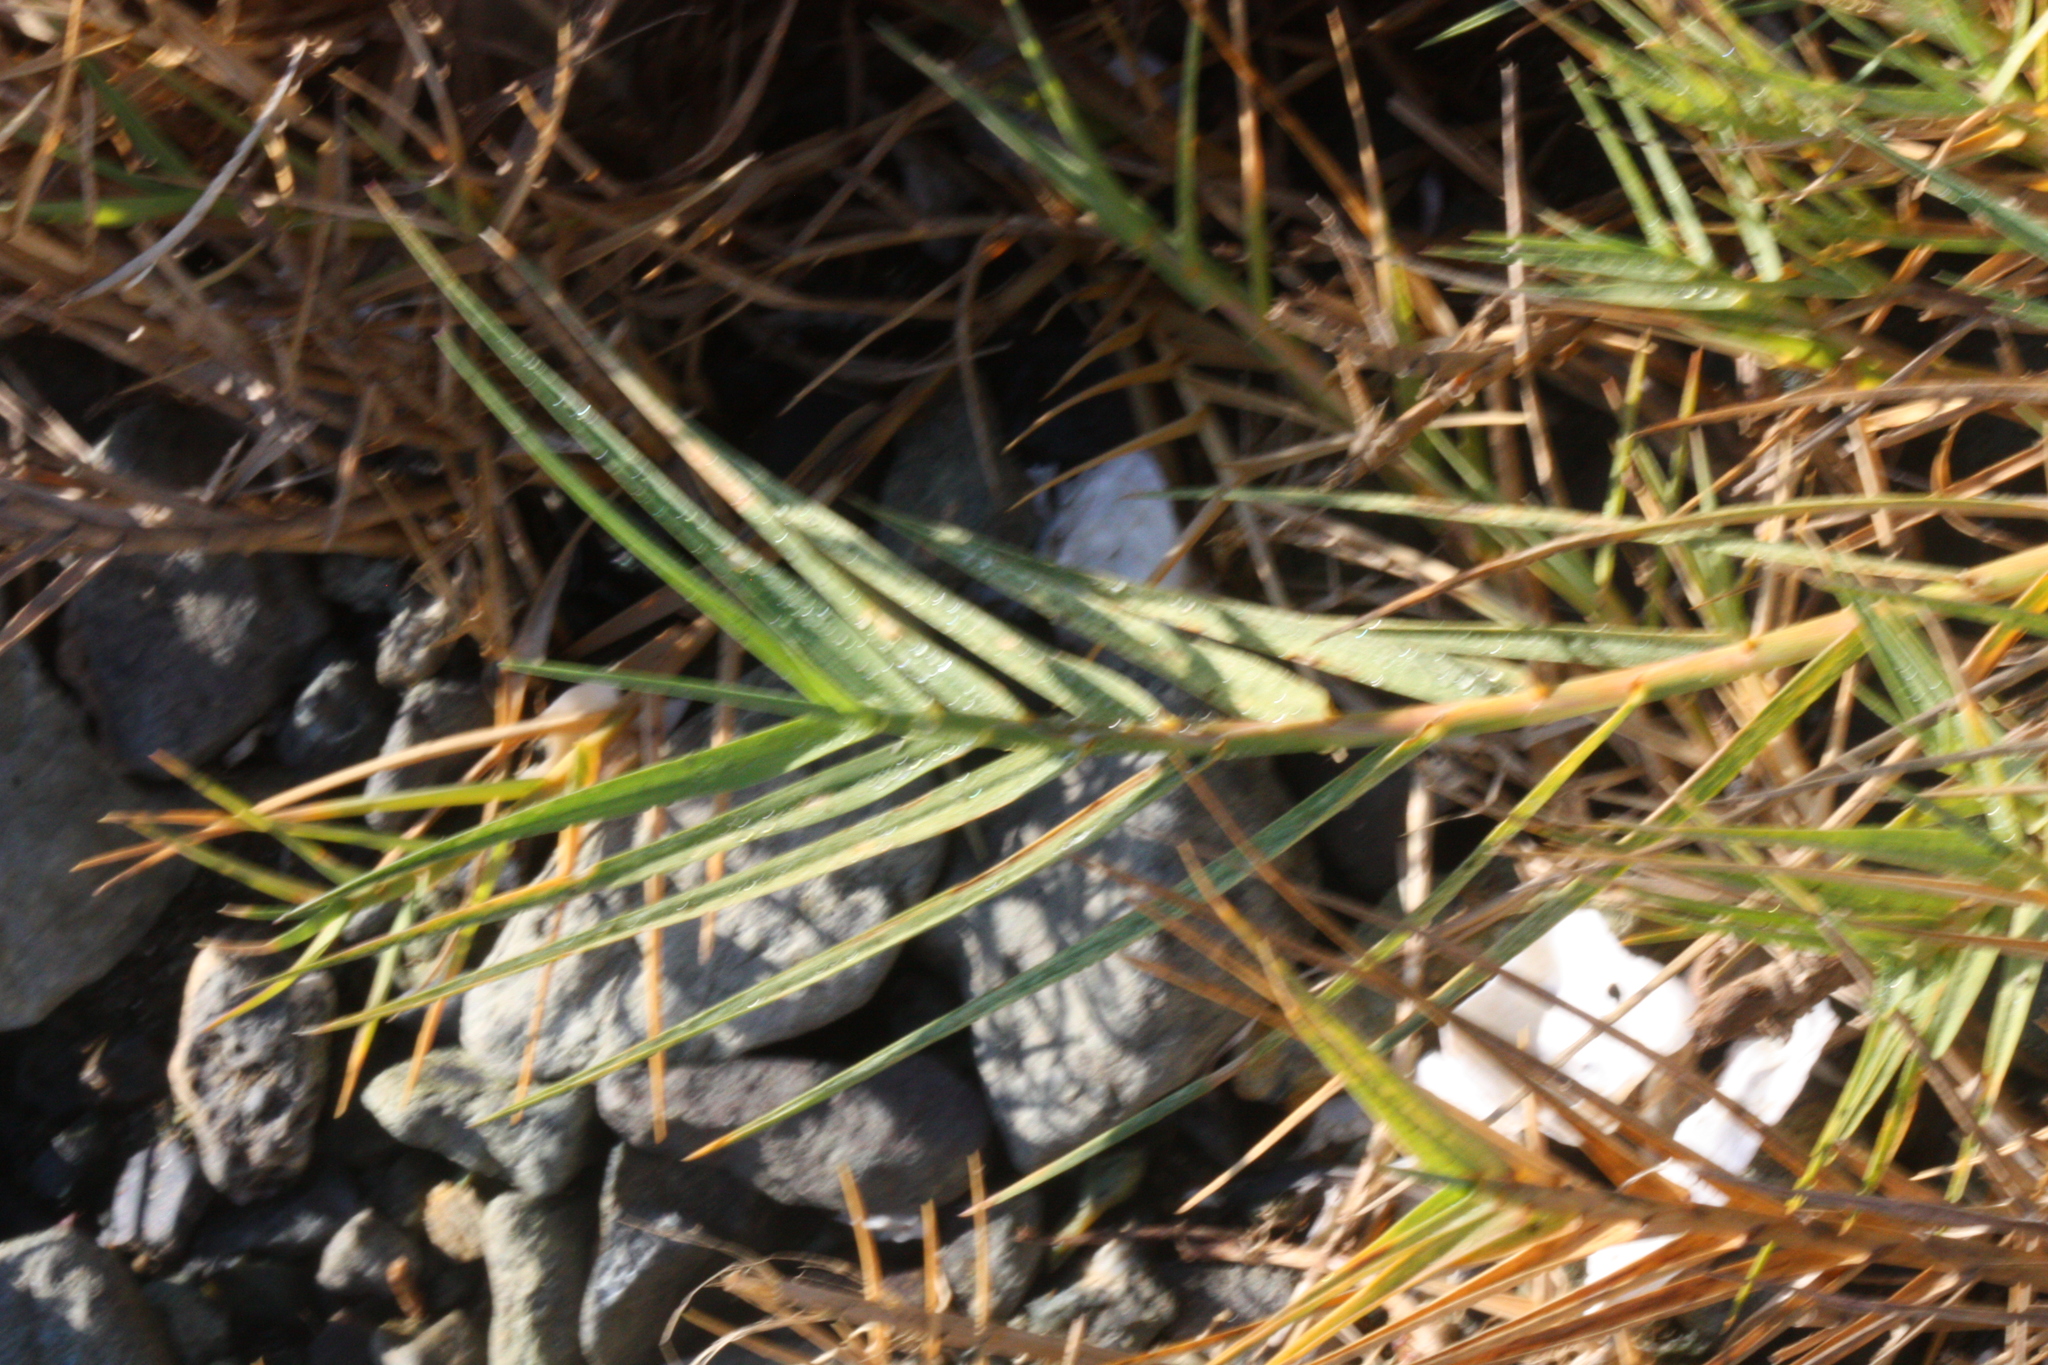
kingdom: Plantae
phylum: Tracheophyta
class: Liliopsida
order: Poales
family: Poaceae
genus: Distichlis
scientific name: Distichlis spicata
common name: Saltgrass
